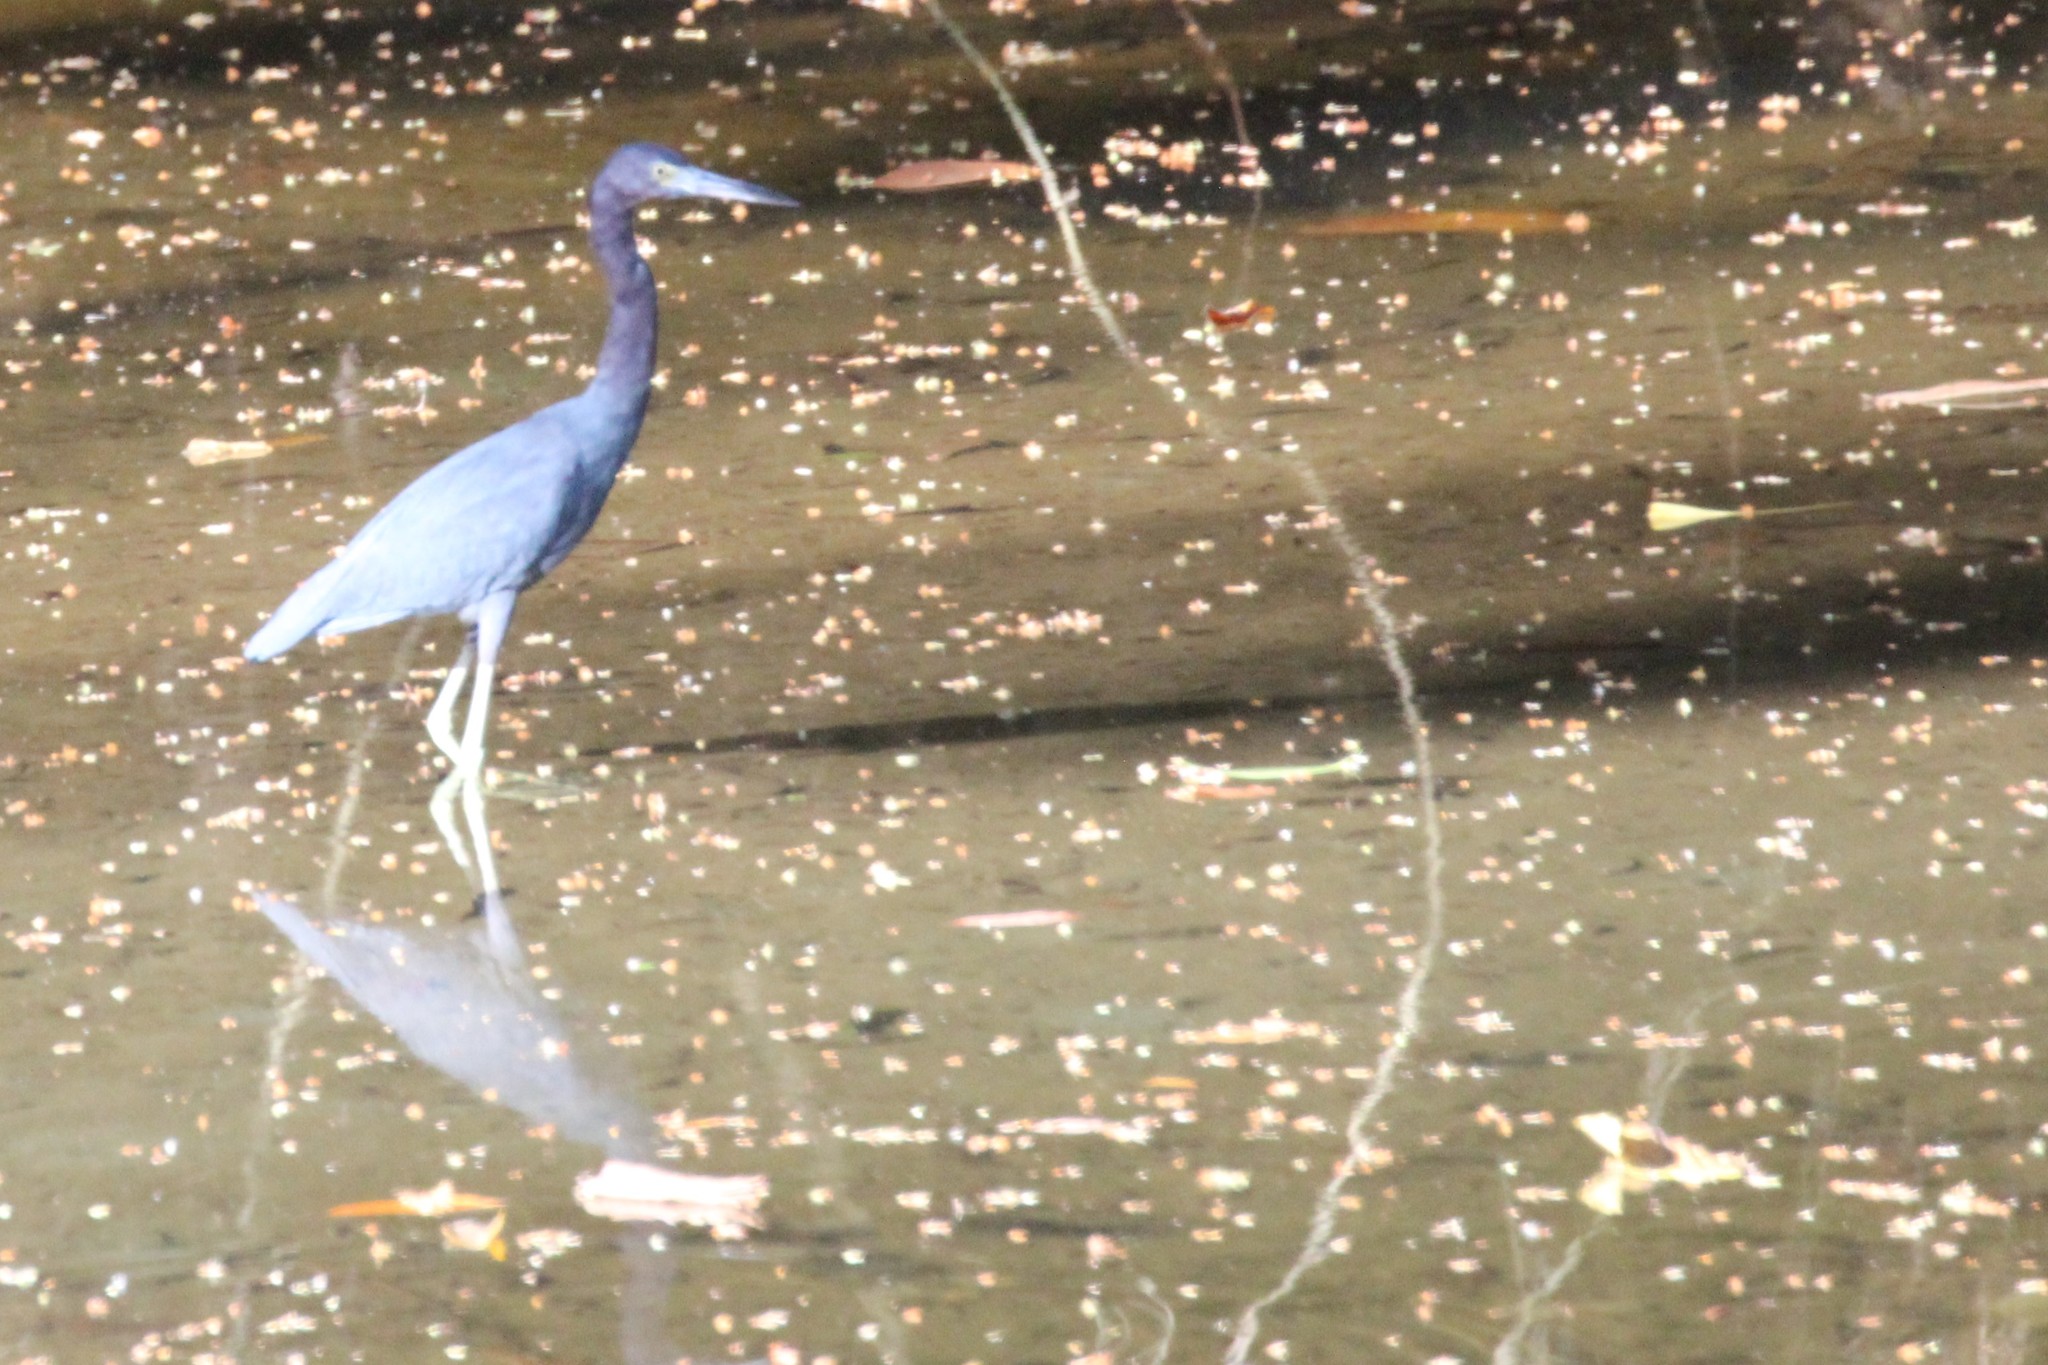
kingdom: Animalia
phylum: Chordata
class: Aves
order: Pelecaniformes
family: Ardeidae
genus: Egretta
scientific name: Egretta caerulea
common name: Little blue heron
